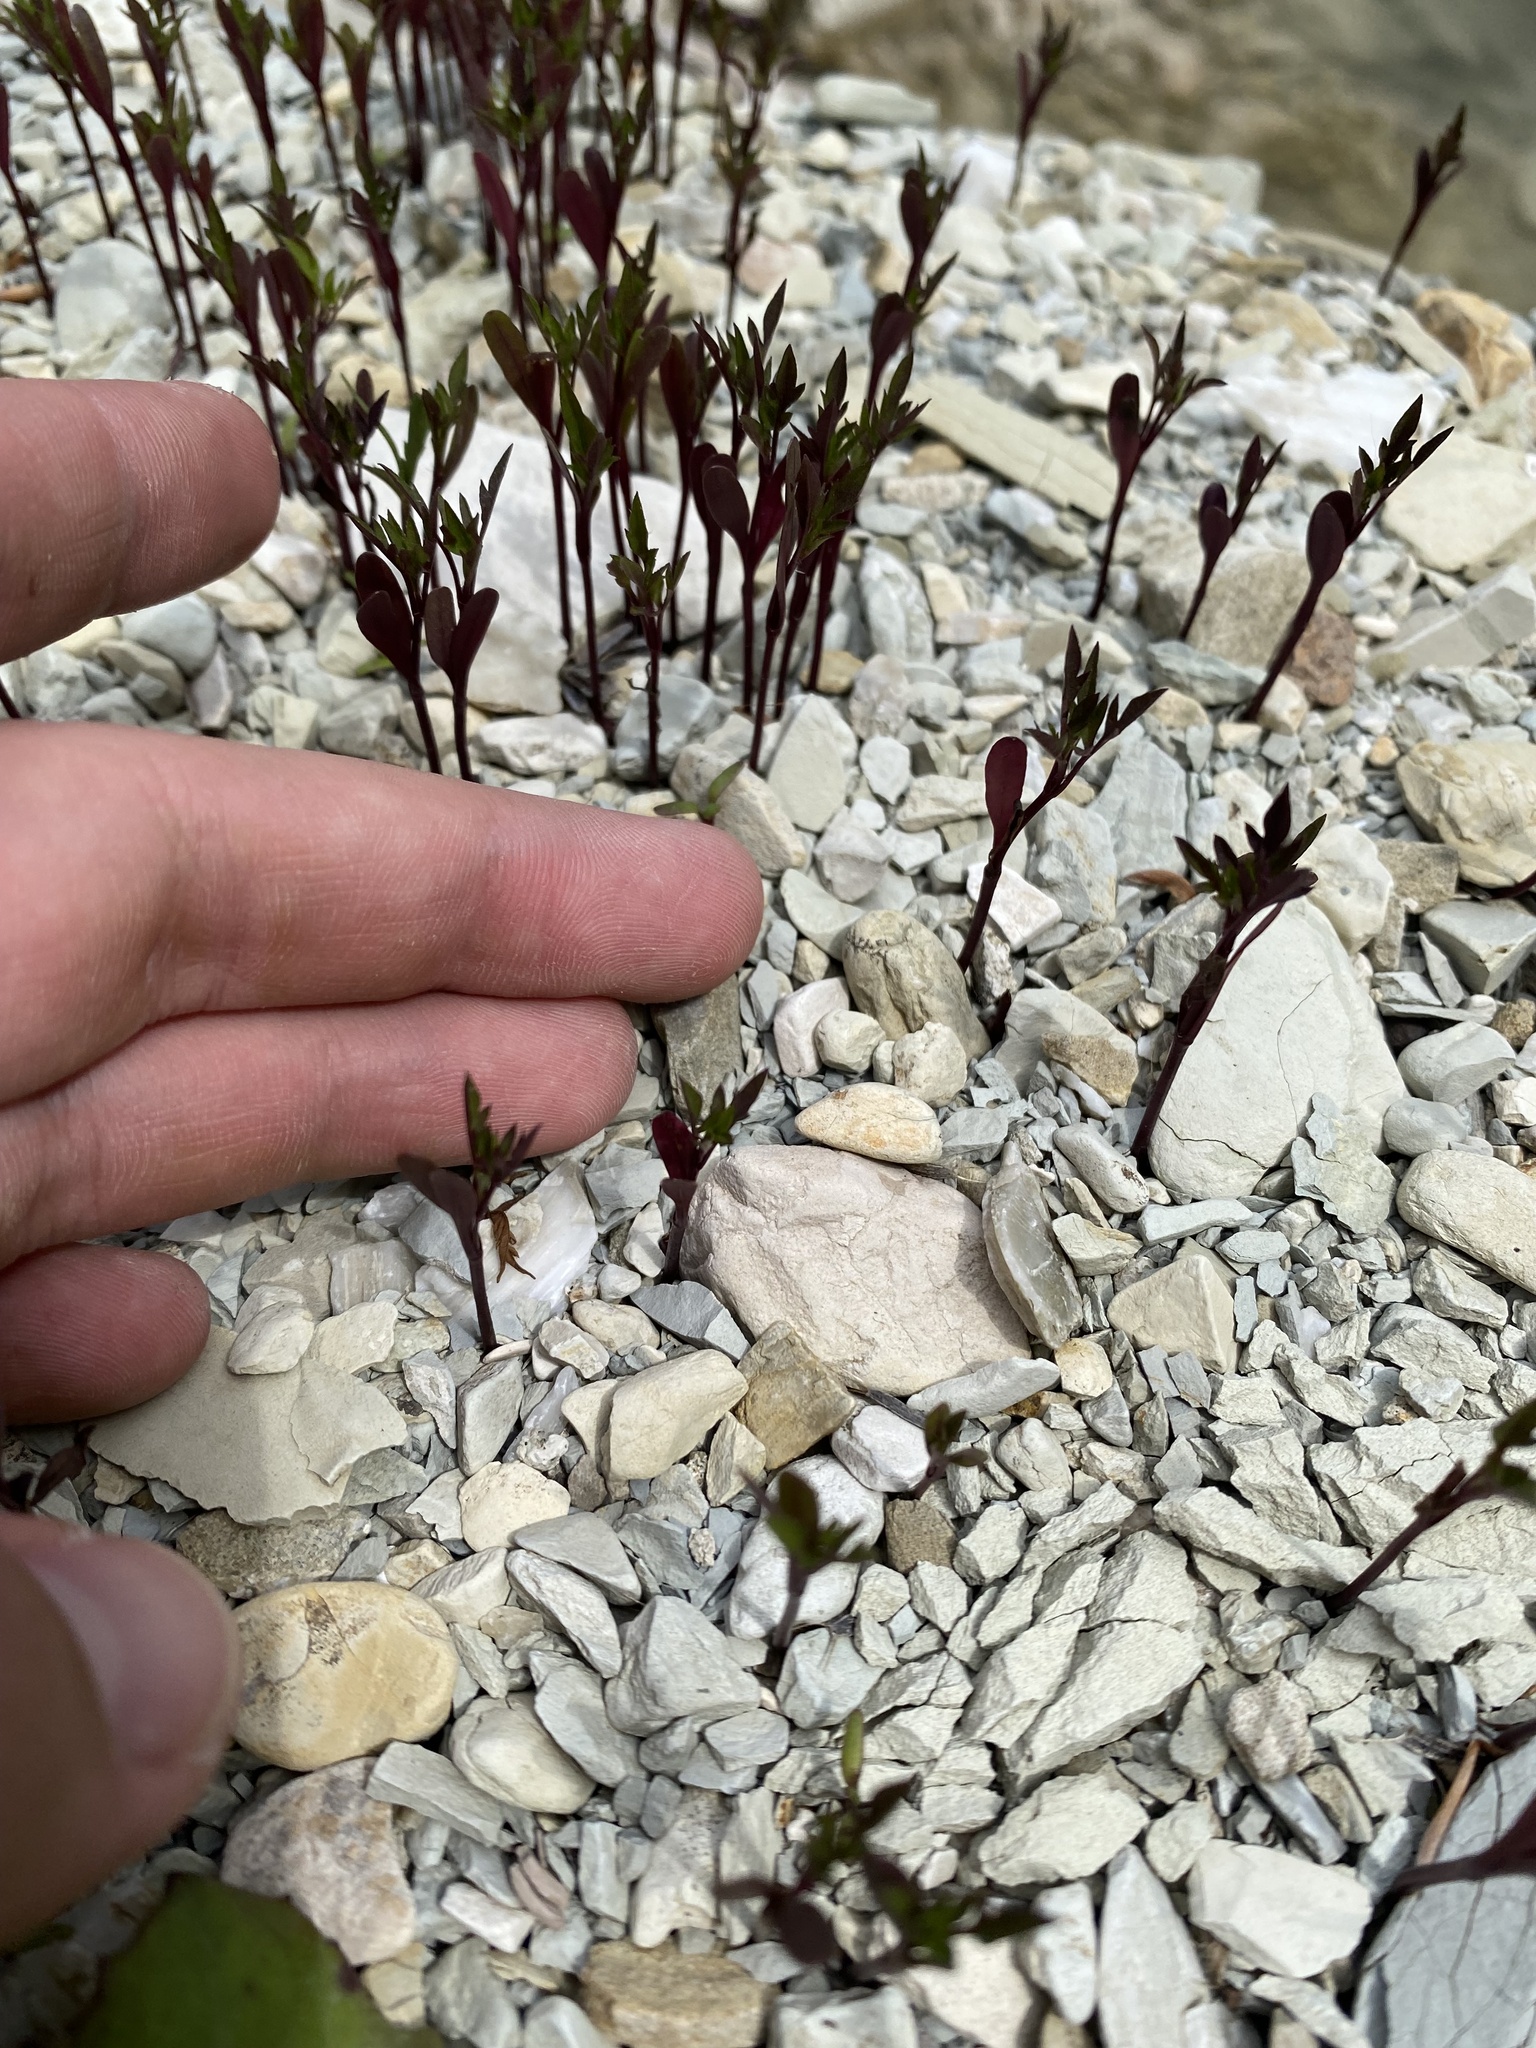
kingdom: Plantae
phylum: Tracheophyta
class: Magnoliopsida
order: Asterales
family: Asteraceae
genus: Bidens
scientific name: Bidens frondosa
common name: Beggarticks
